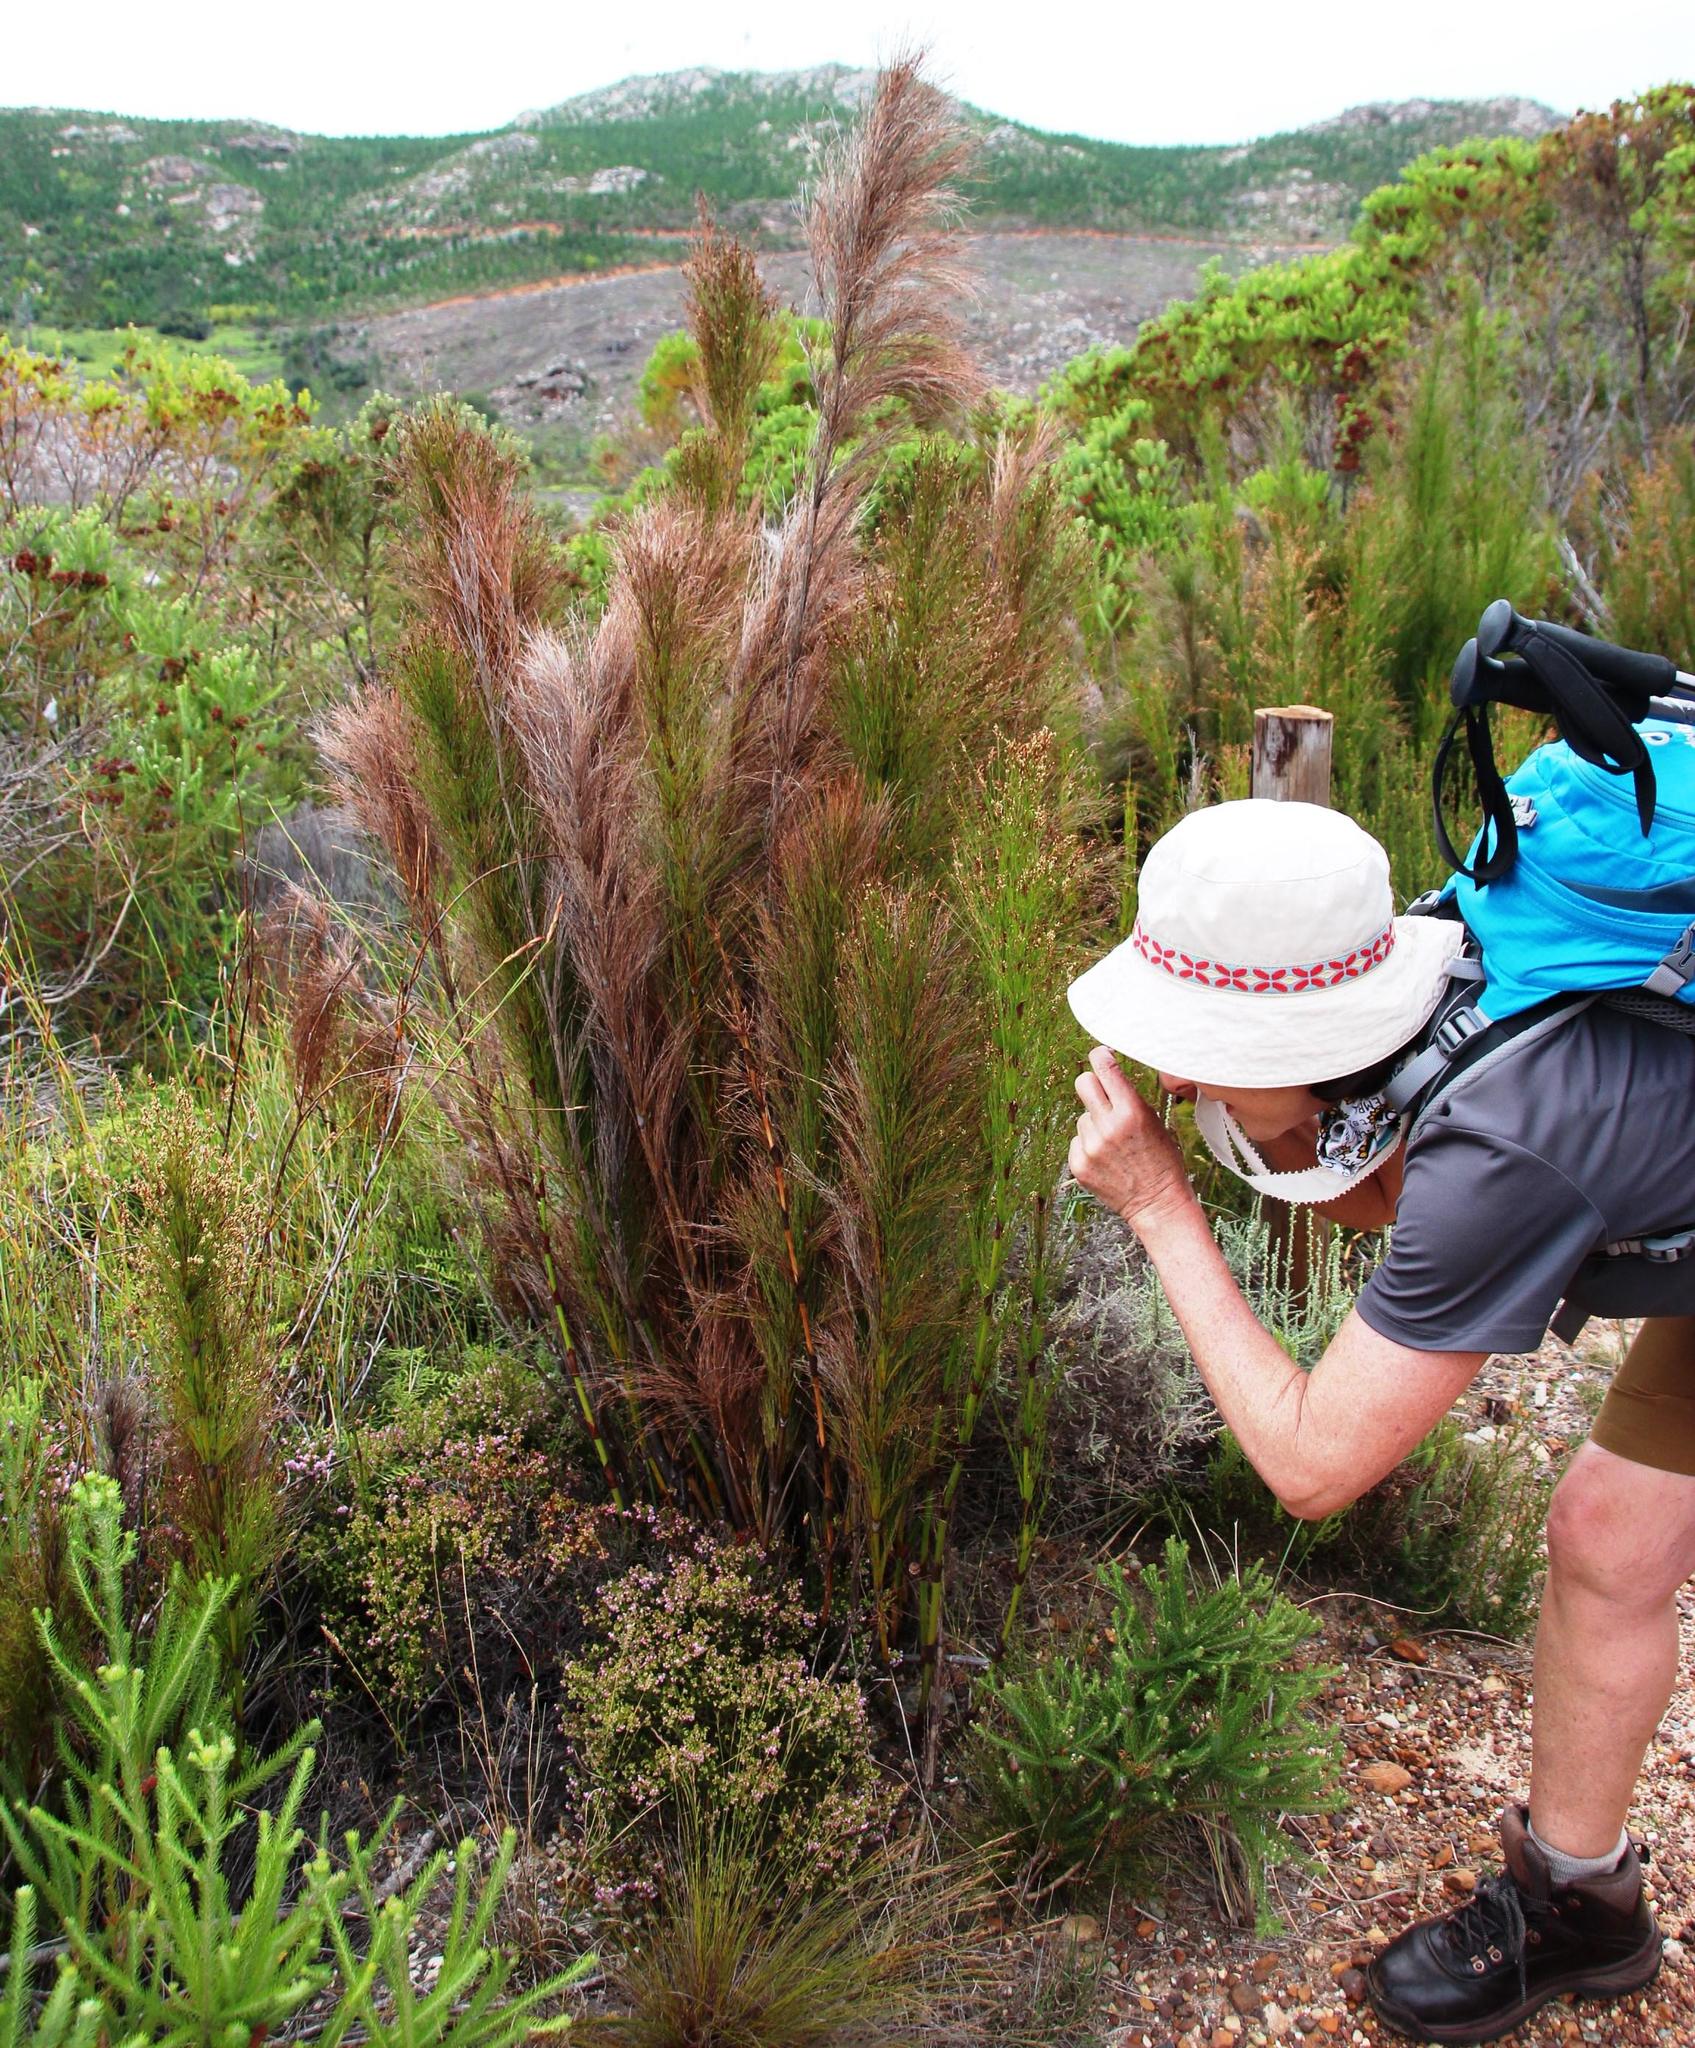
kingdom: Plantae
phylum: Tracheophyta
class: Liliopsida
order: Poales
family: Restionaceae
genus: Restio
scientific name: Restio subverticillatus
